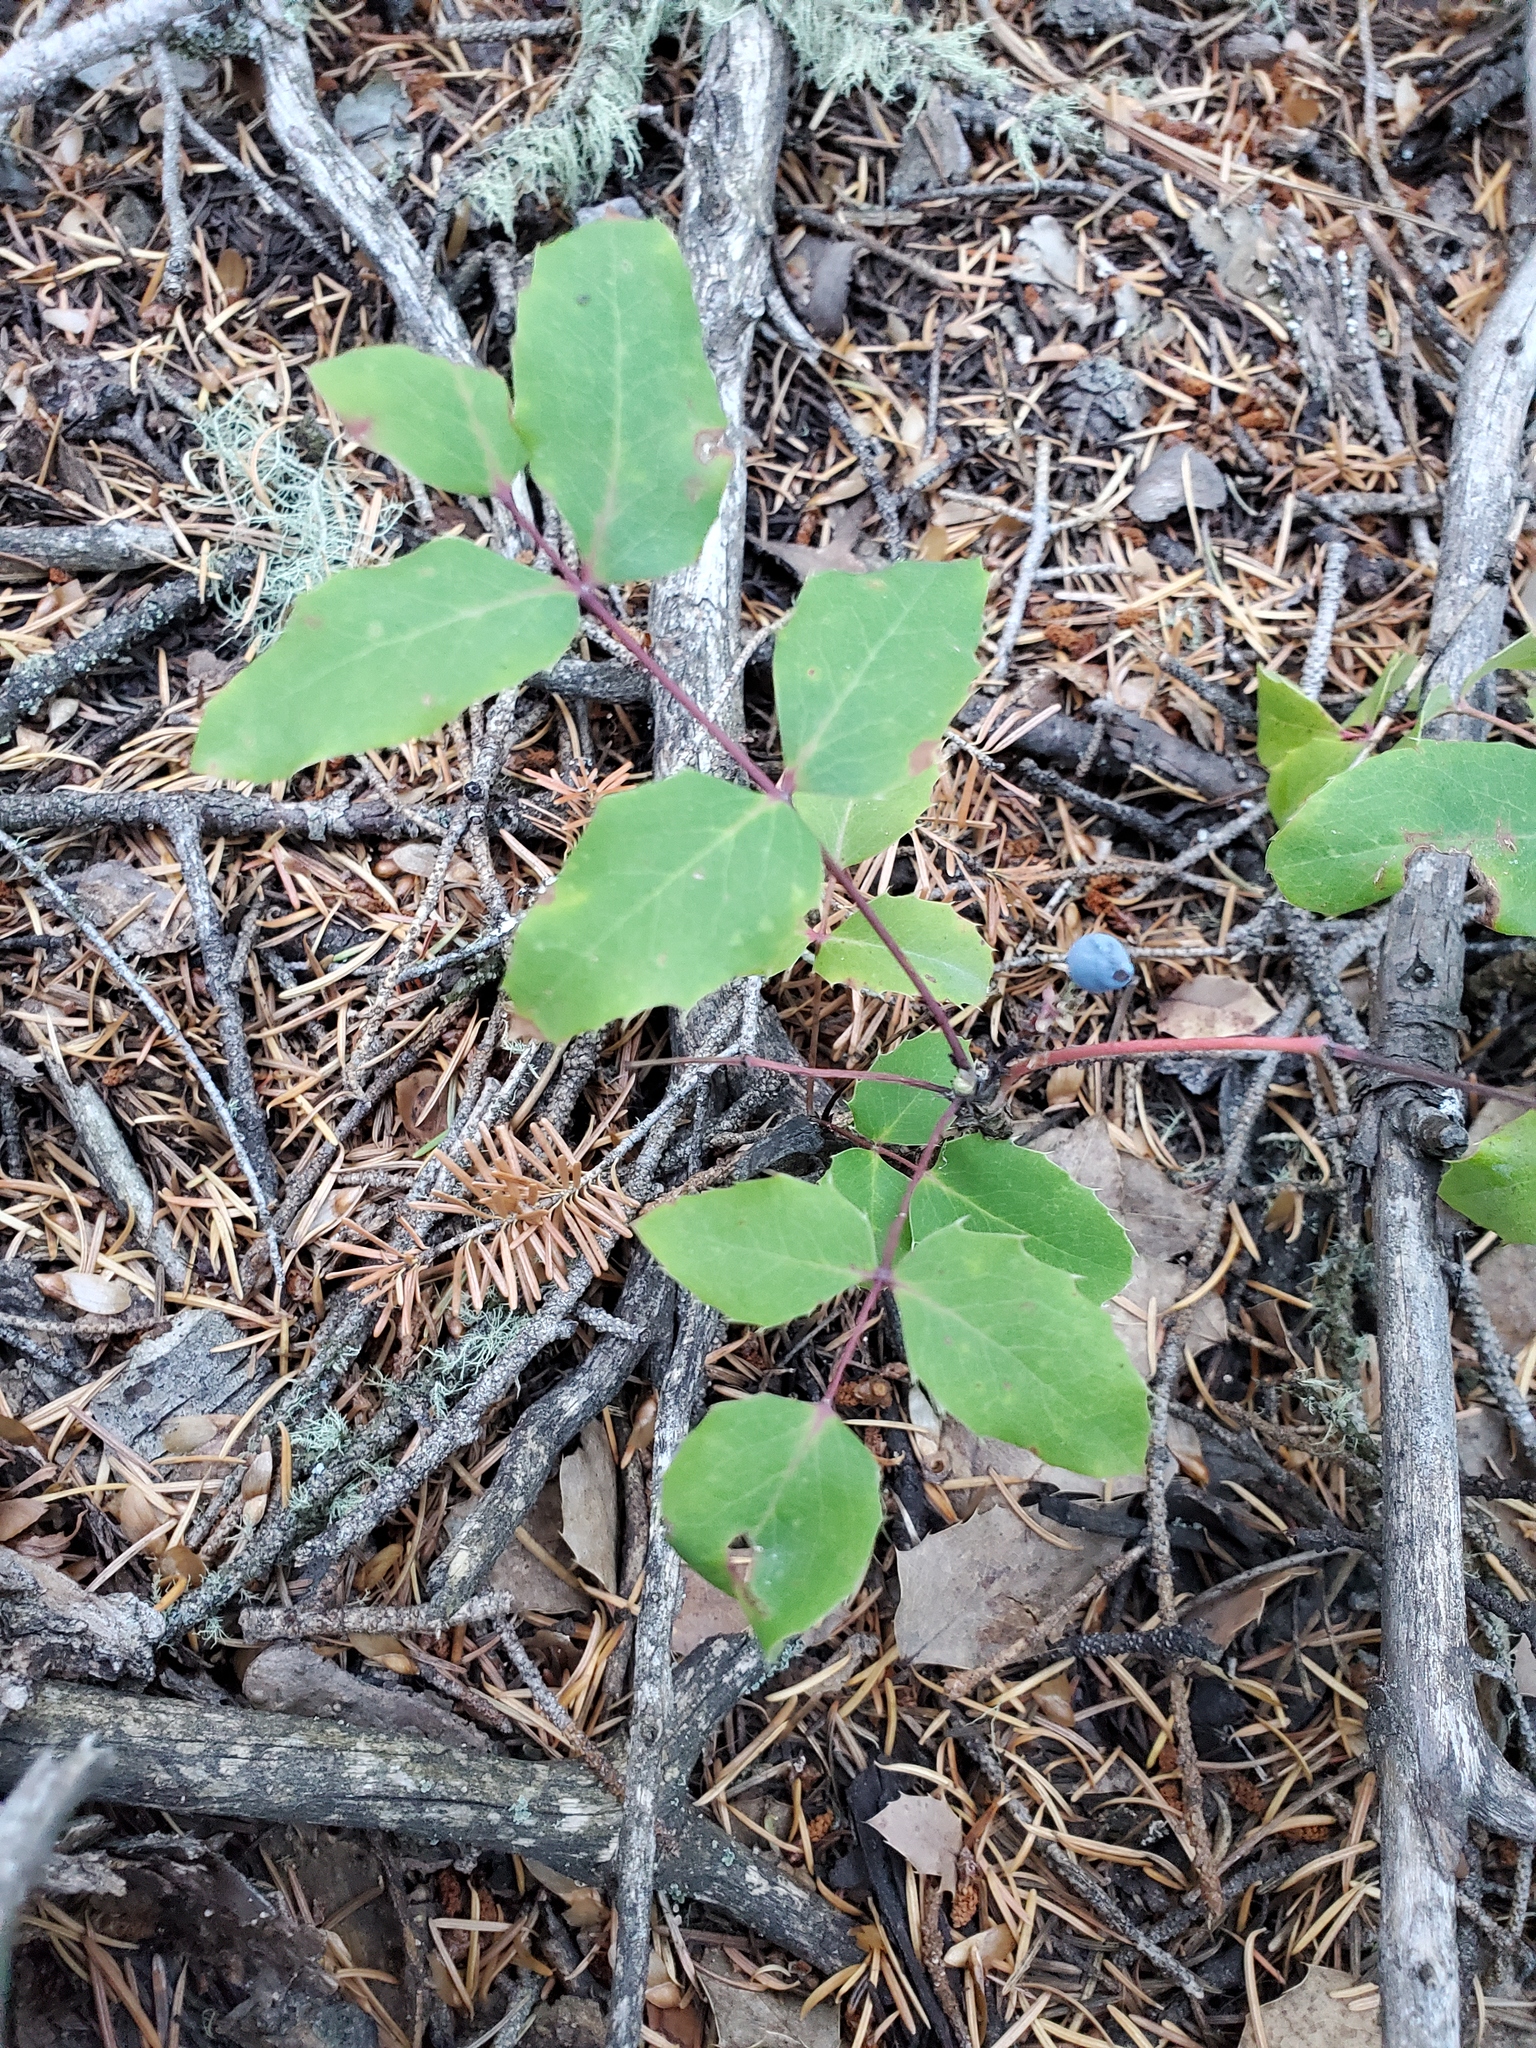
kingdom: Plantae
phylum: Tracheophyta
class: Magnoliopsida
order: Ranunculales
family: Berberidaceae
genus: Mahonia
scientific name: Mahonia repens
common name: Creeping oregon-grape
